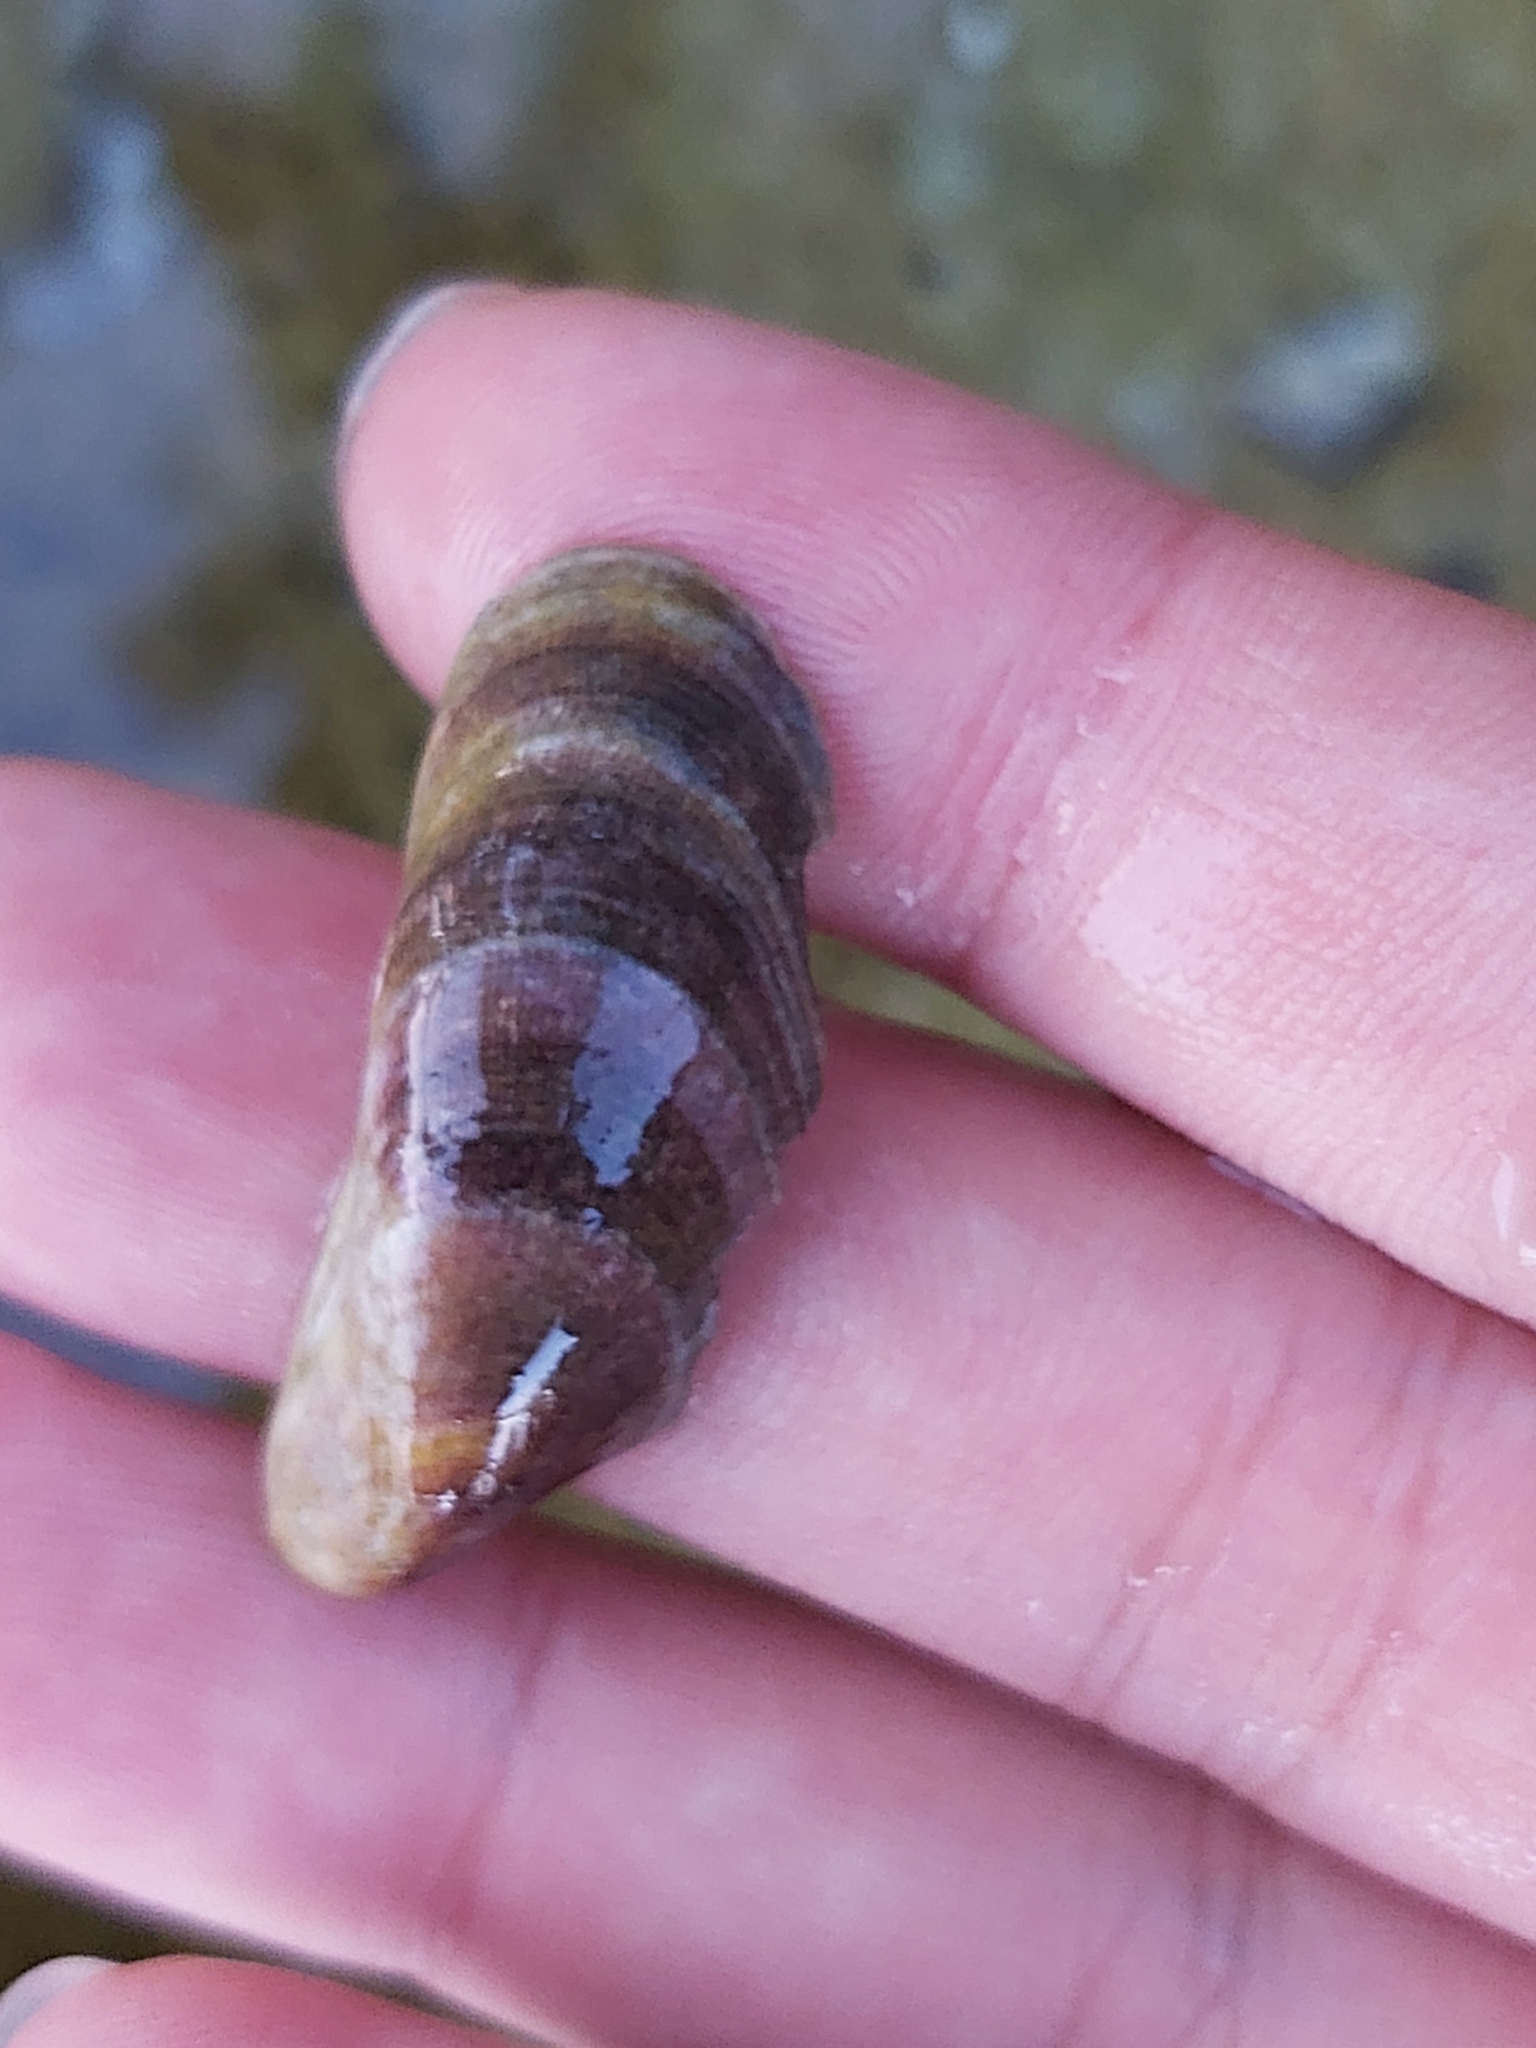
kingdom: Animalia
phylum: Mollusca
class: Bivalvia
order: Mytilida
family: Mytilidae
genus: Trichomya
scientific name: Trichomya hirsuta
